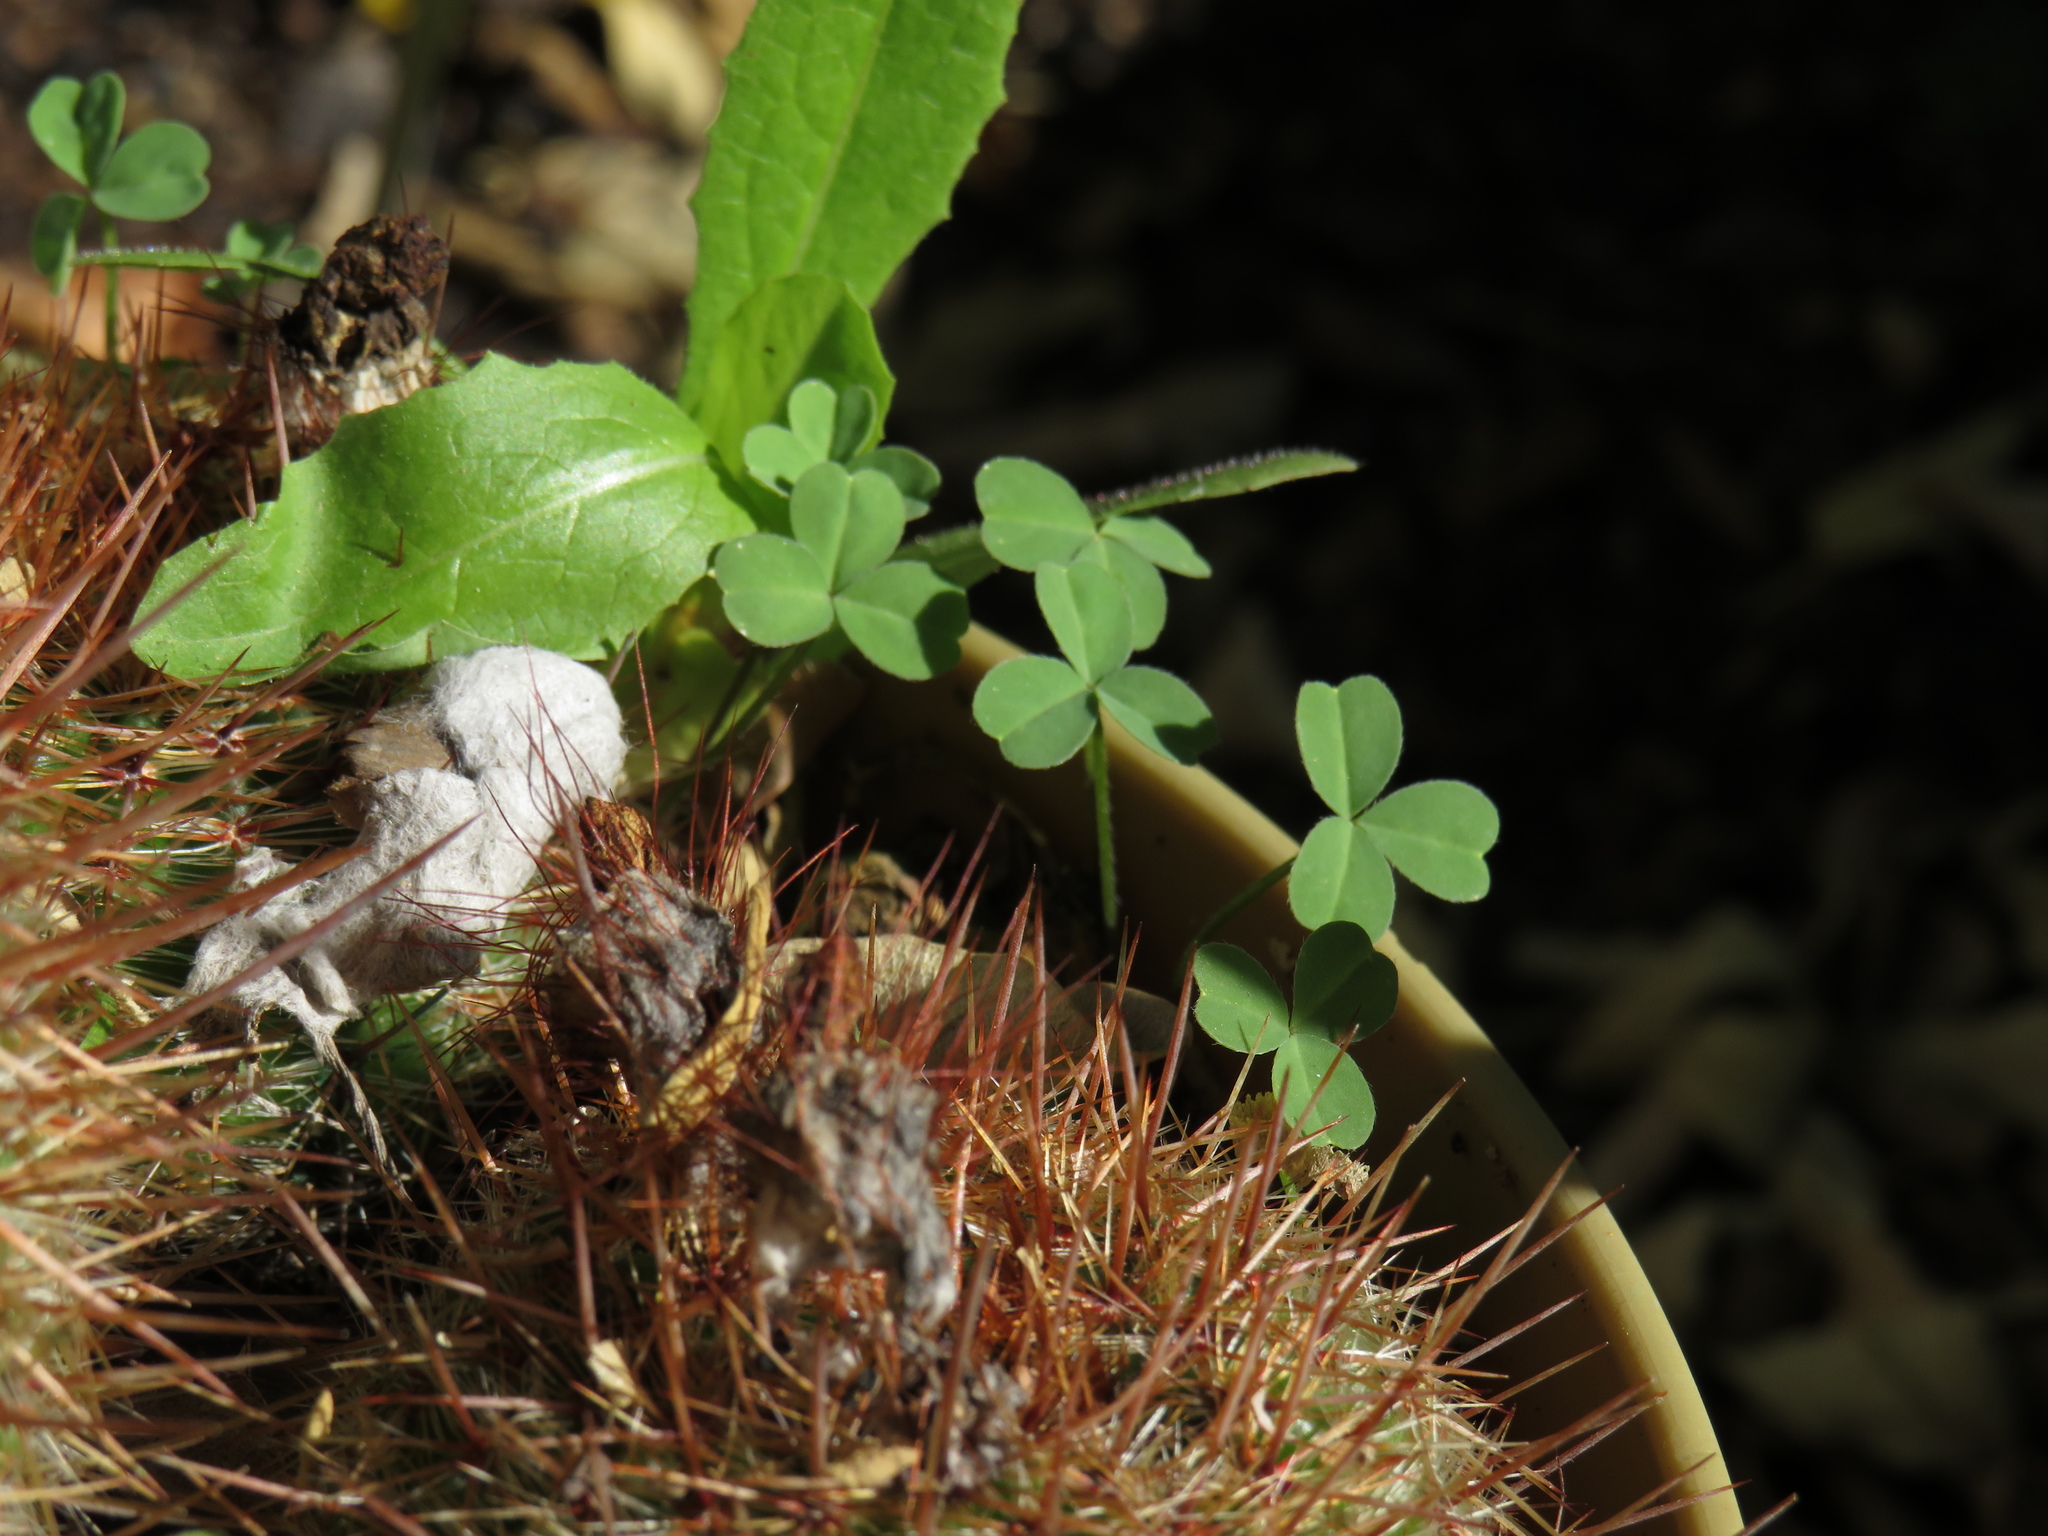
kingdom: Plantae
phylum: Tracheophyta
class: Magnoliopsida
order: Oxalidales
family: Oxalidaceae
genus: Oxalis
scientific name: Oxalis obtusa
